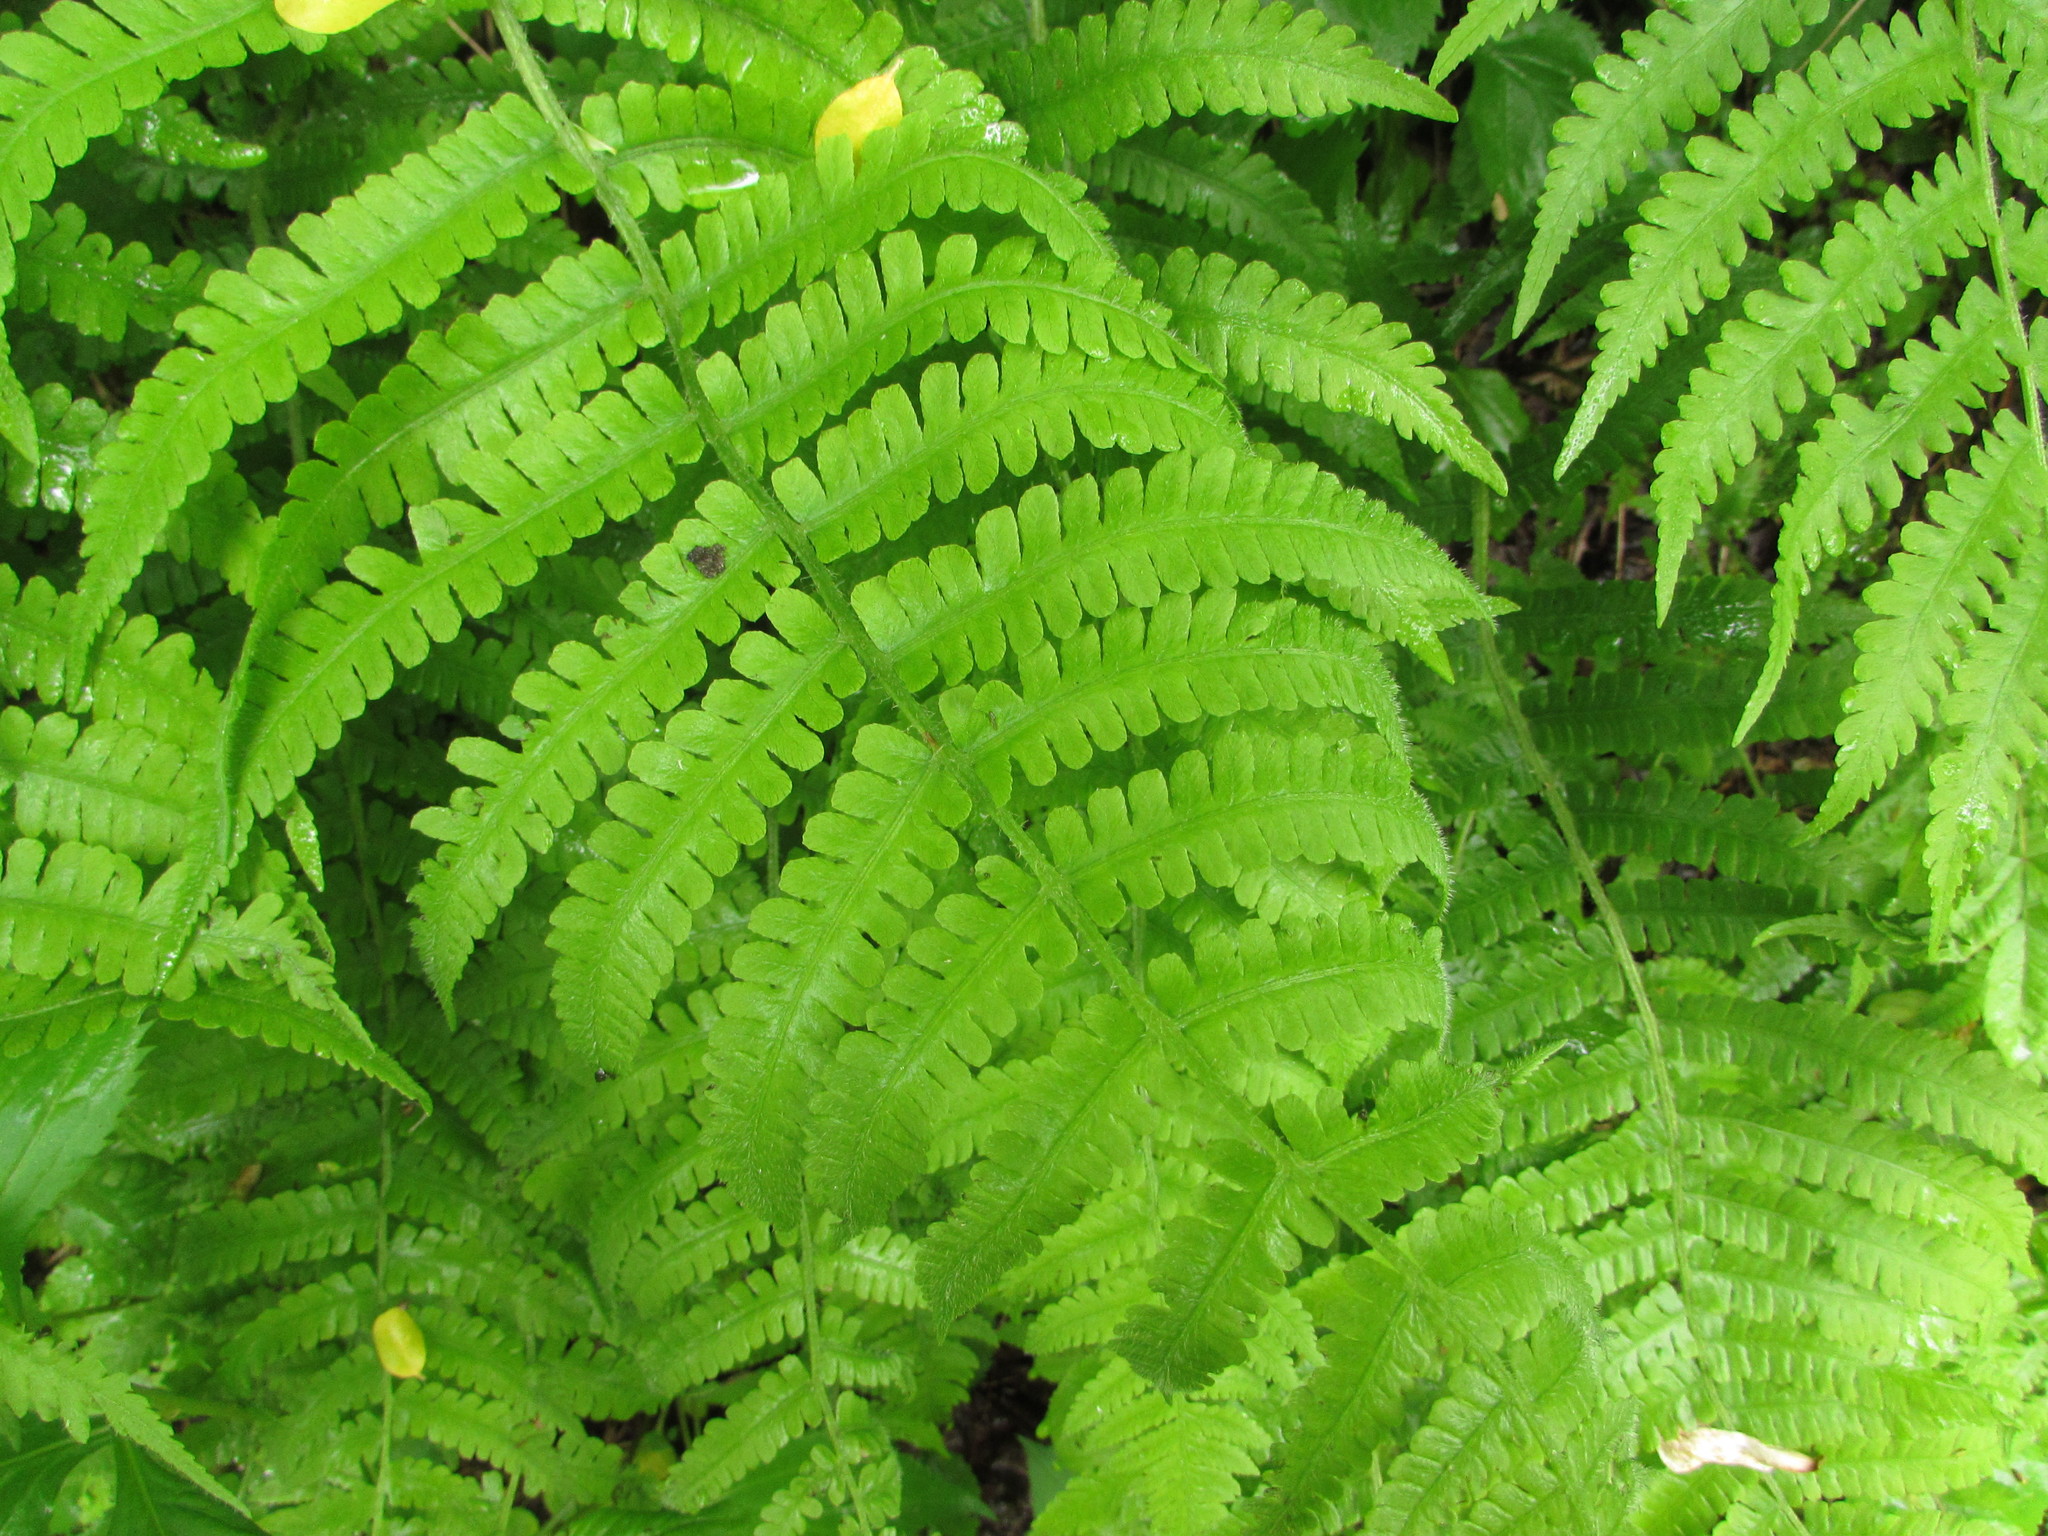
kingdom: Plantae
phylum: Tracheophyta
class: Polypodiopsida
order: Polypodiales
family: Athyriaceae
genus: Deparia
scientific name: Deparia acrostichoides
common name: Silver false spleenwort
